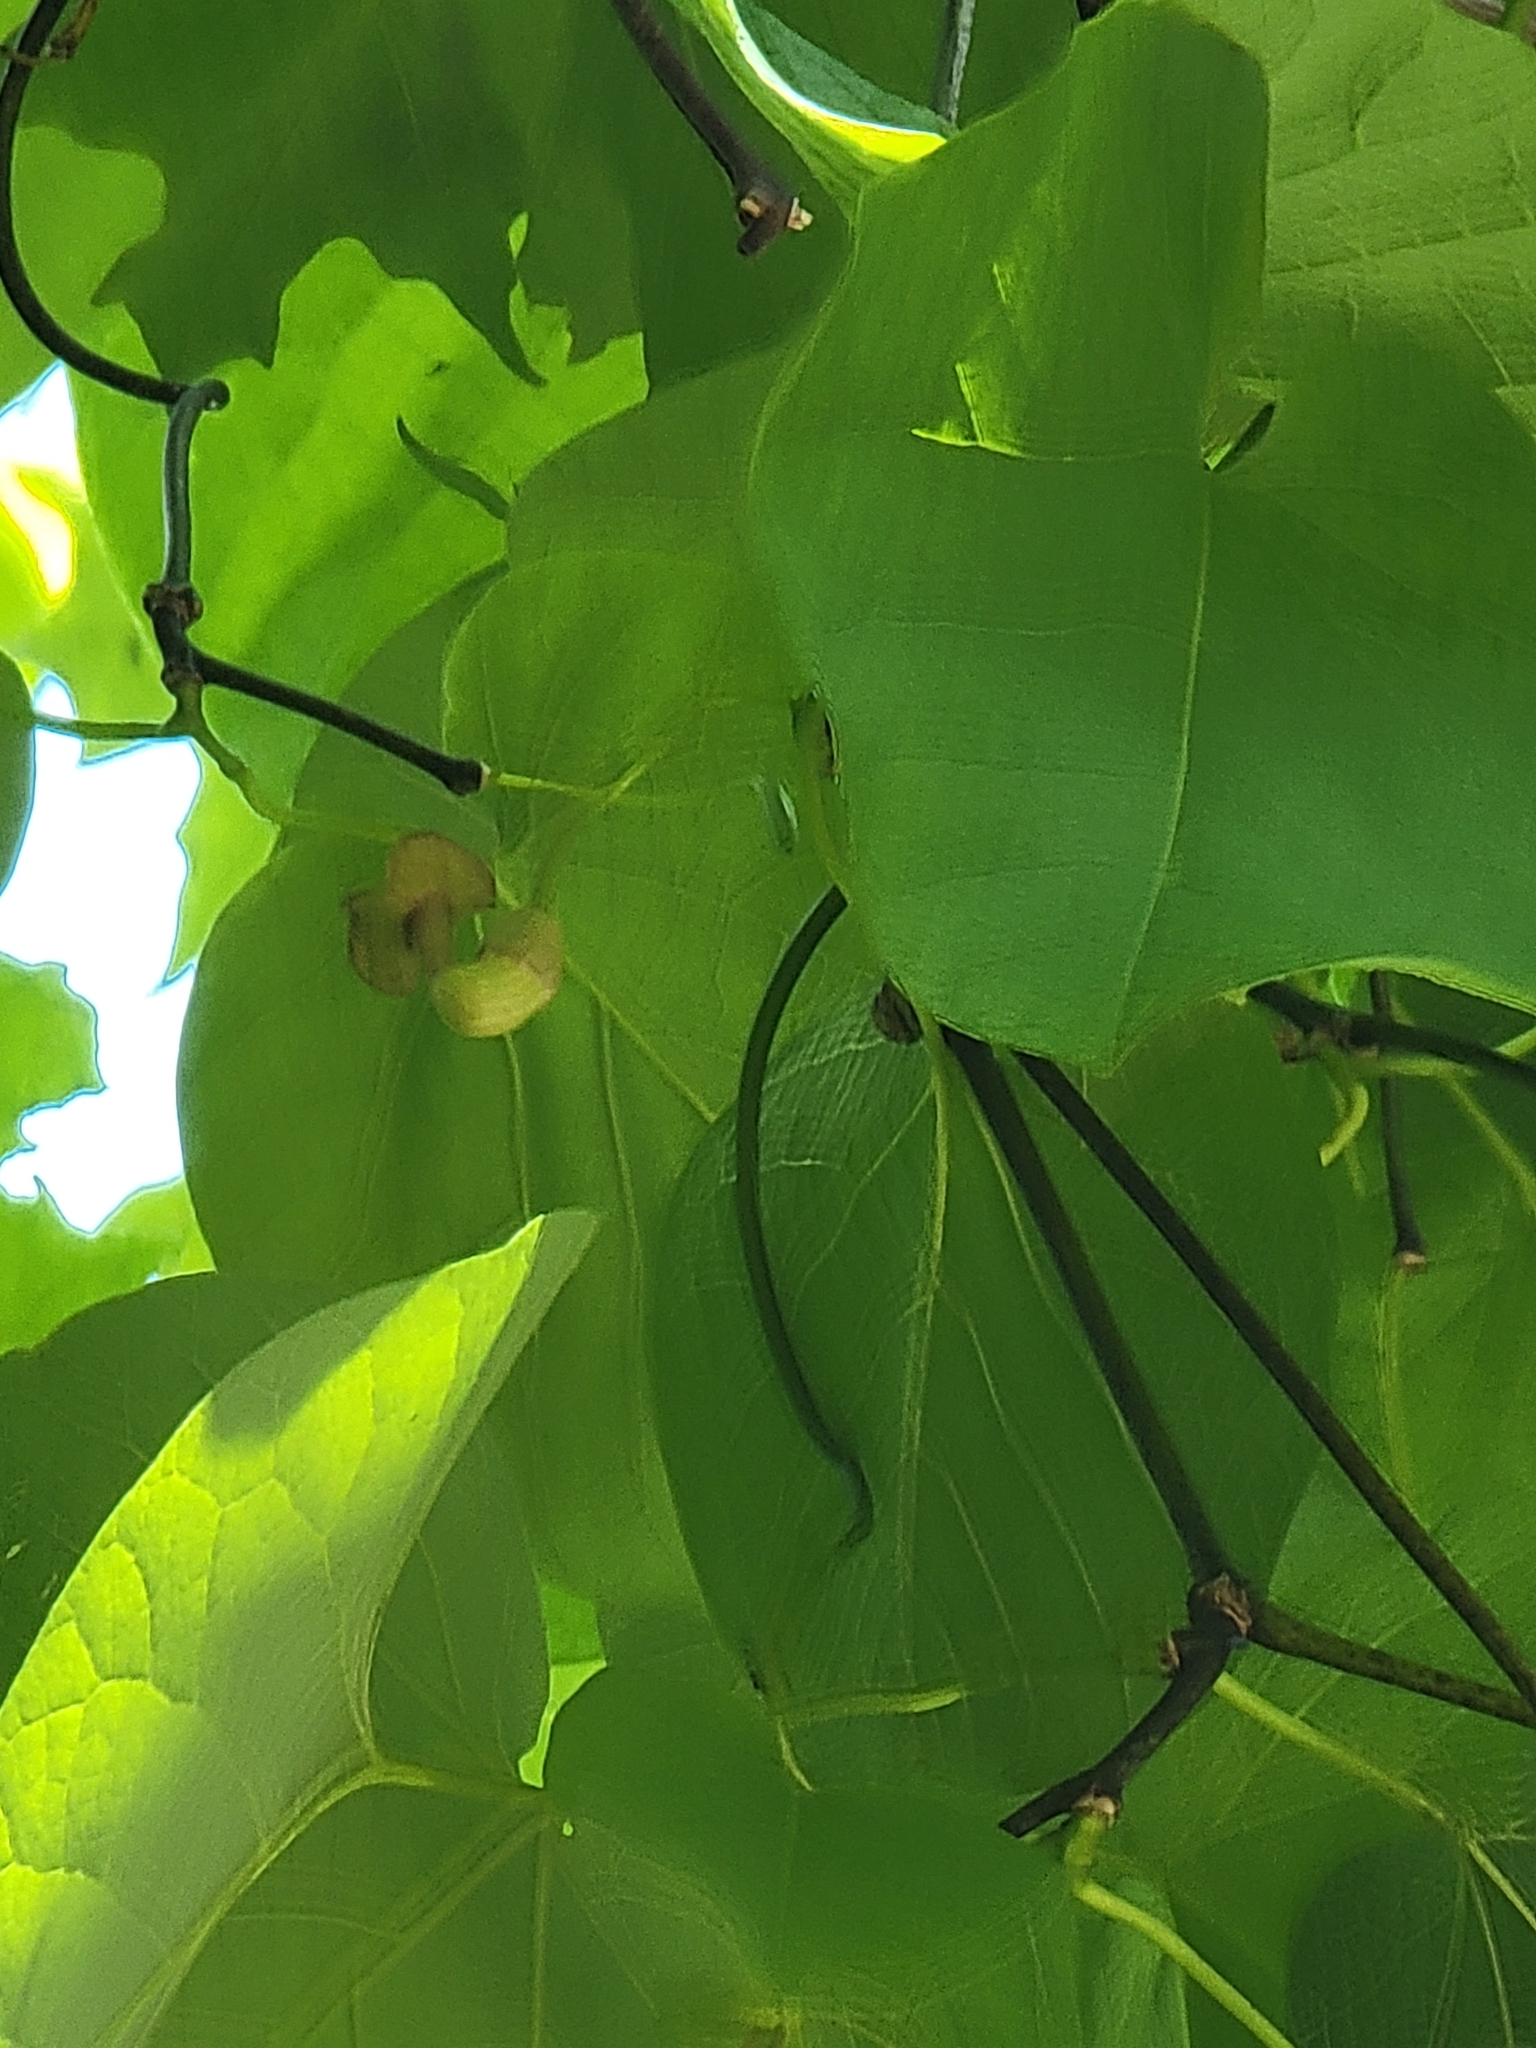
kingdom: Plantae
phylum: Tracheophyta
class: Magnoliopsida
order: Piperales
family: Aristolochiaceae
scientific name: Aristolochiaceae
